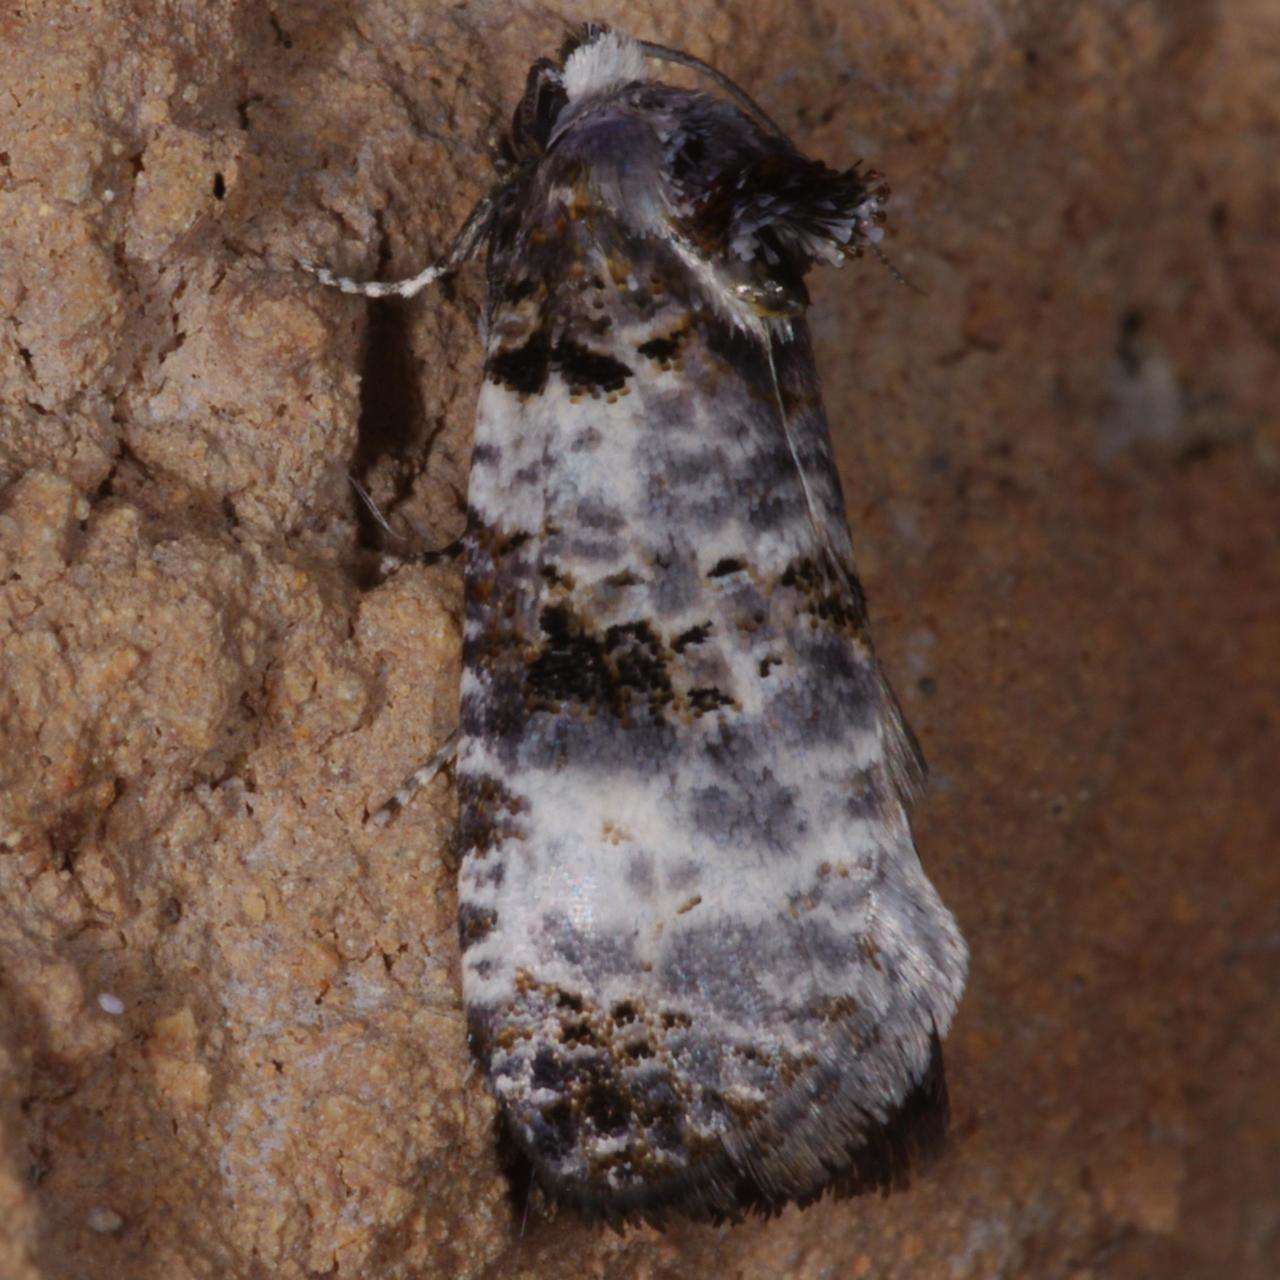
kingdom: Animalia
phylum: Arthropoda
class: Insecta
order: Lepidoptera
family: Cossidae
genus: Idioses
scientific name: Idioses littleri
